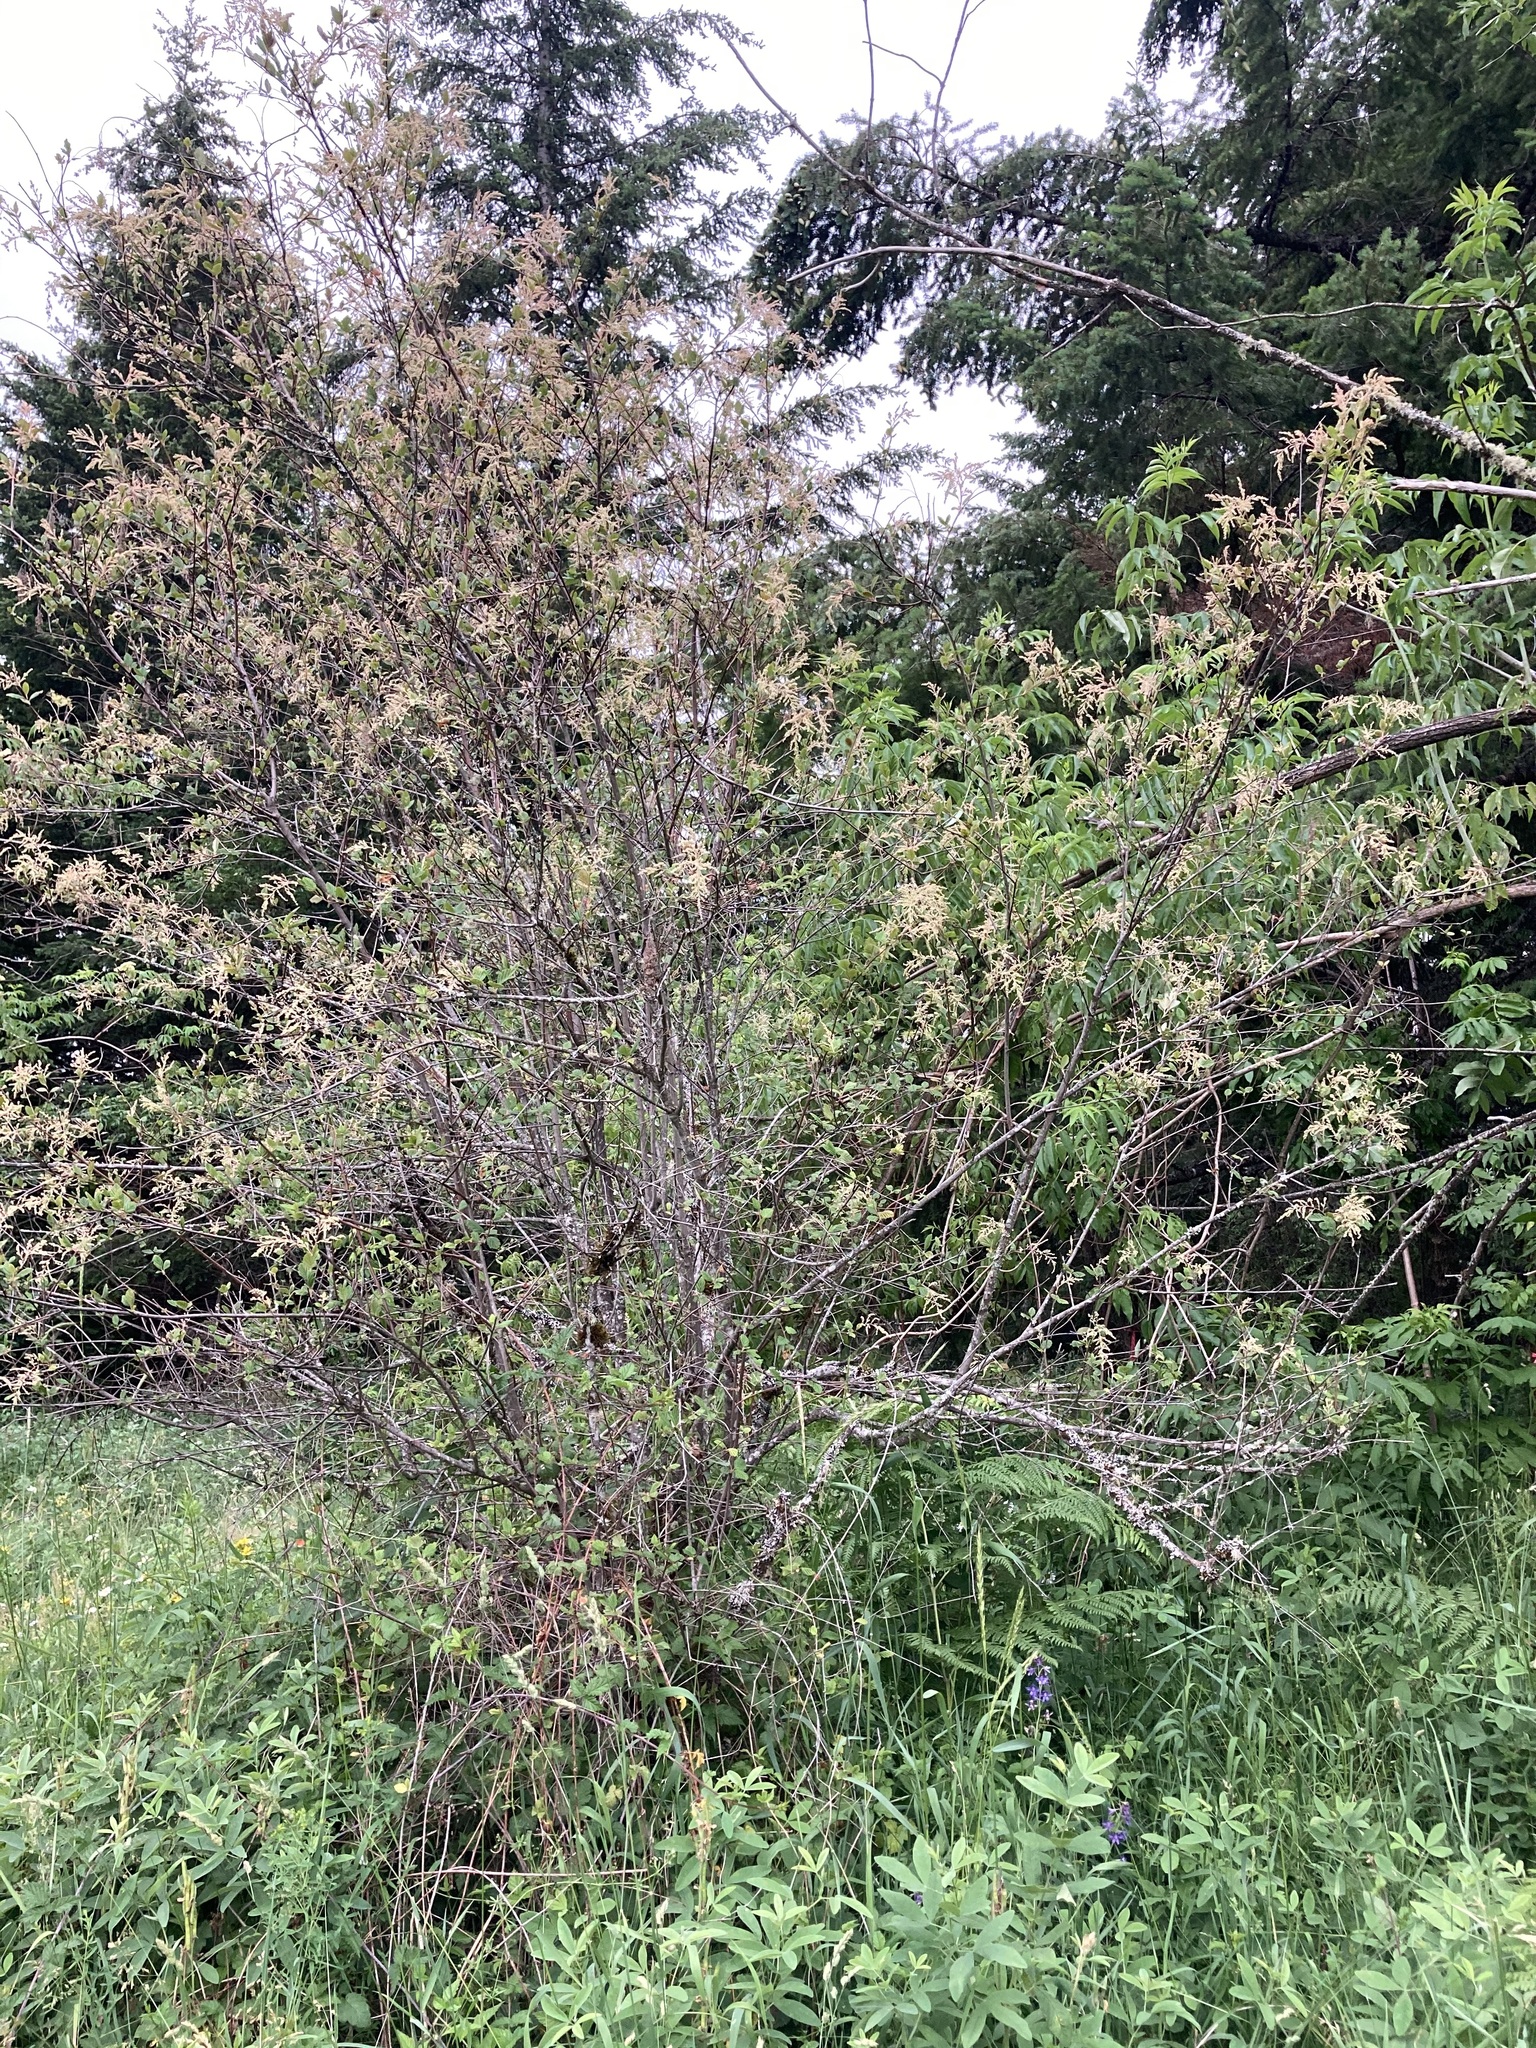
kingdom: Plantae
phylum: Tracheophyta
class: Magnoliopsida
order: Rosales
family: Rosaceae
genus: Holodiscus
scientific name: Holodiscus discolor
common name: Oceanspray
